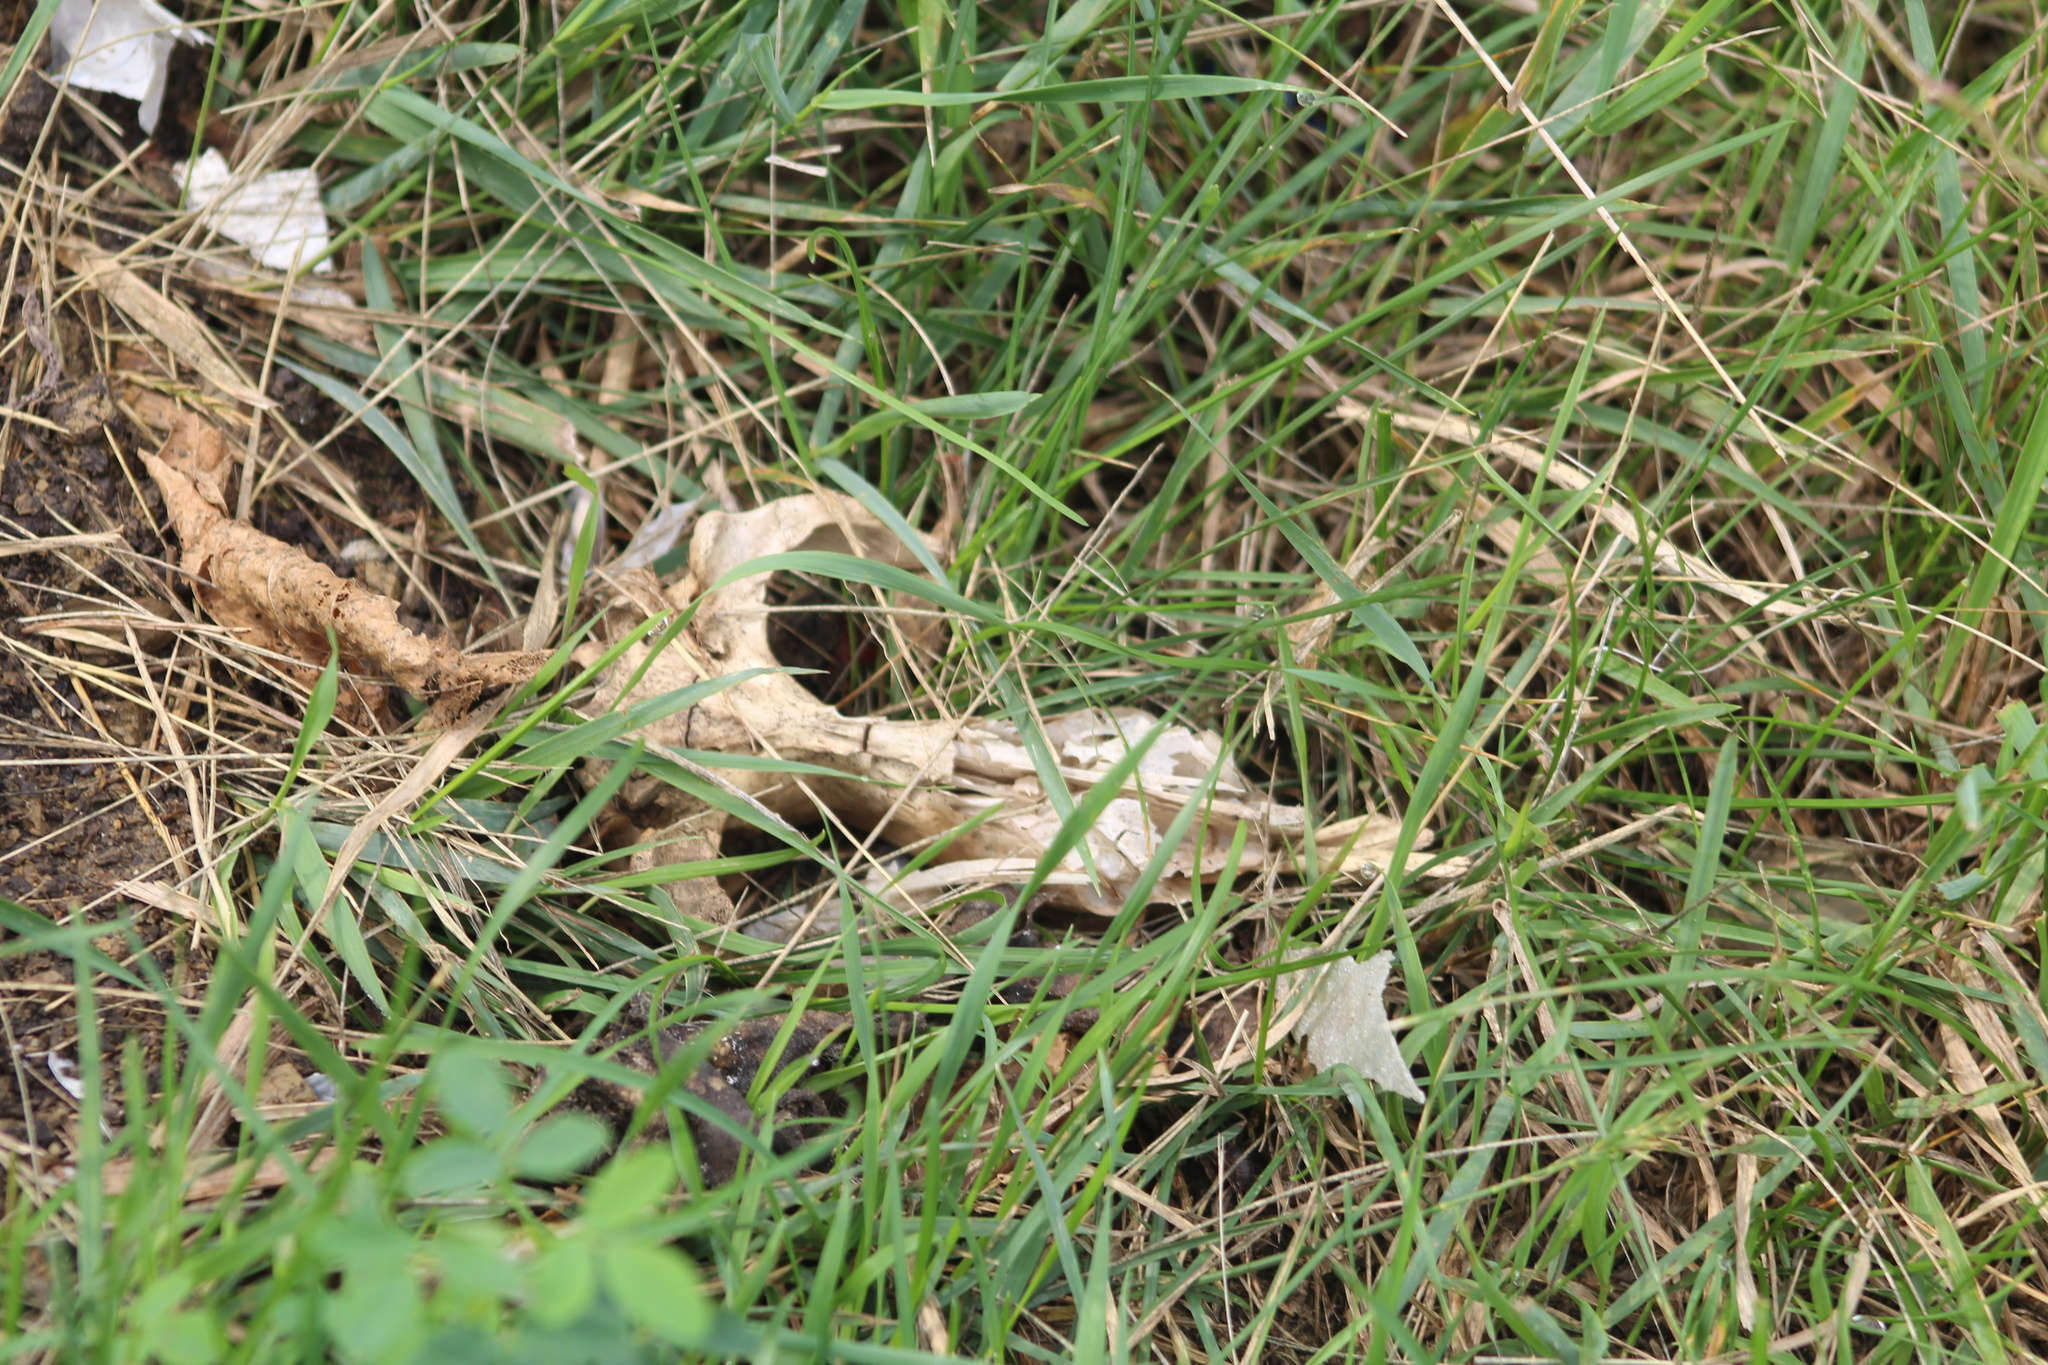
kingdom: Animalia
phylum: Chordata
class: Mammalia
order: Didelphimorphia
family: Didelphidae
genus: Didelphis
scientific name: Didelphis virginiana
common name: Virginia opossum
